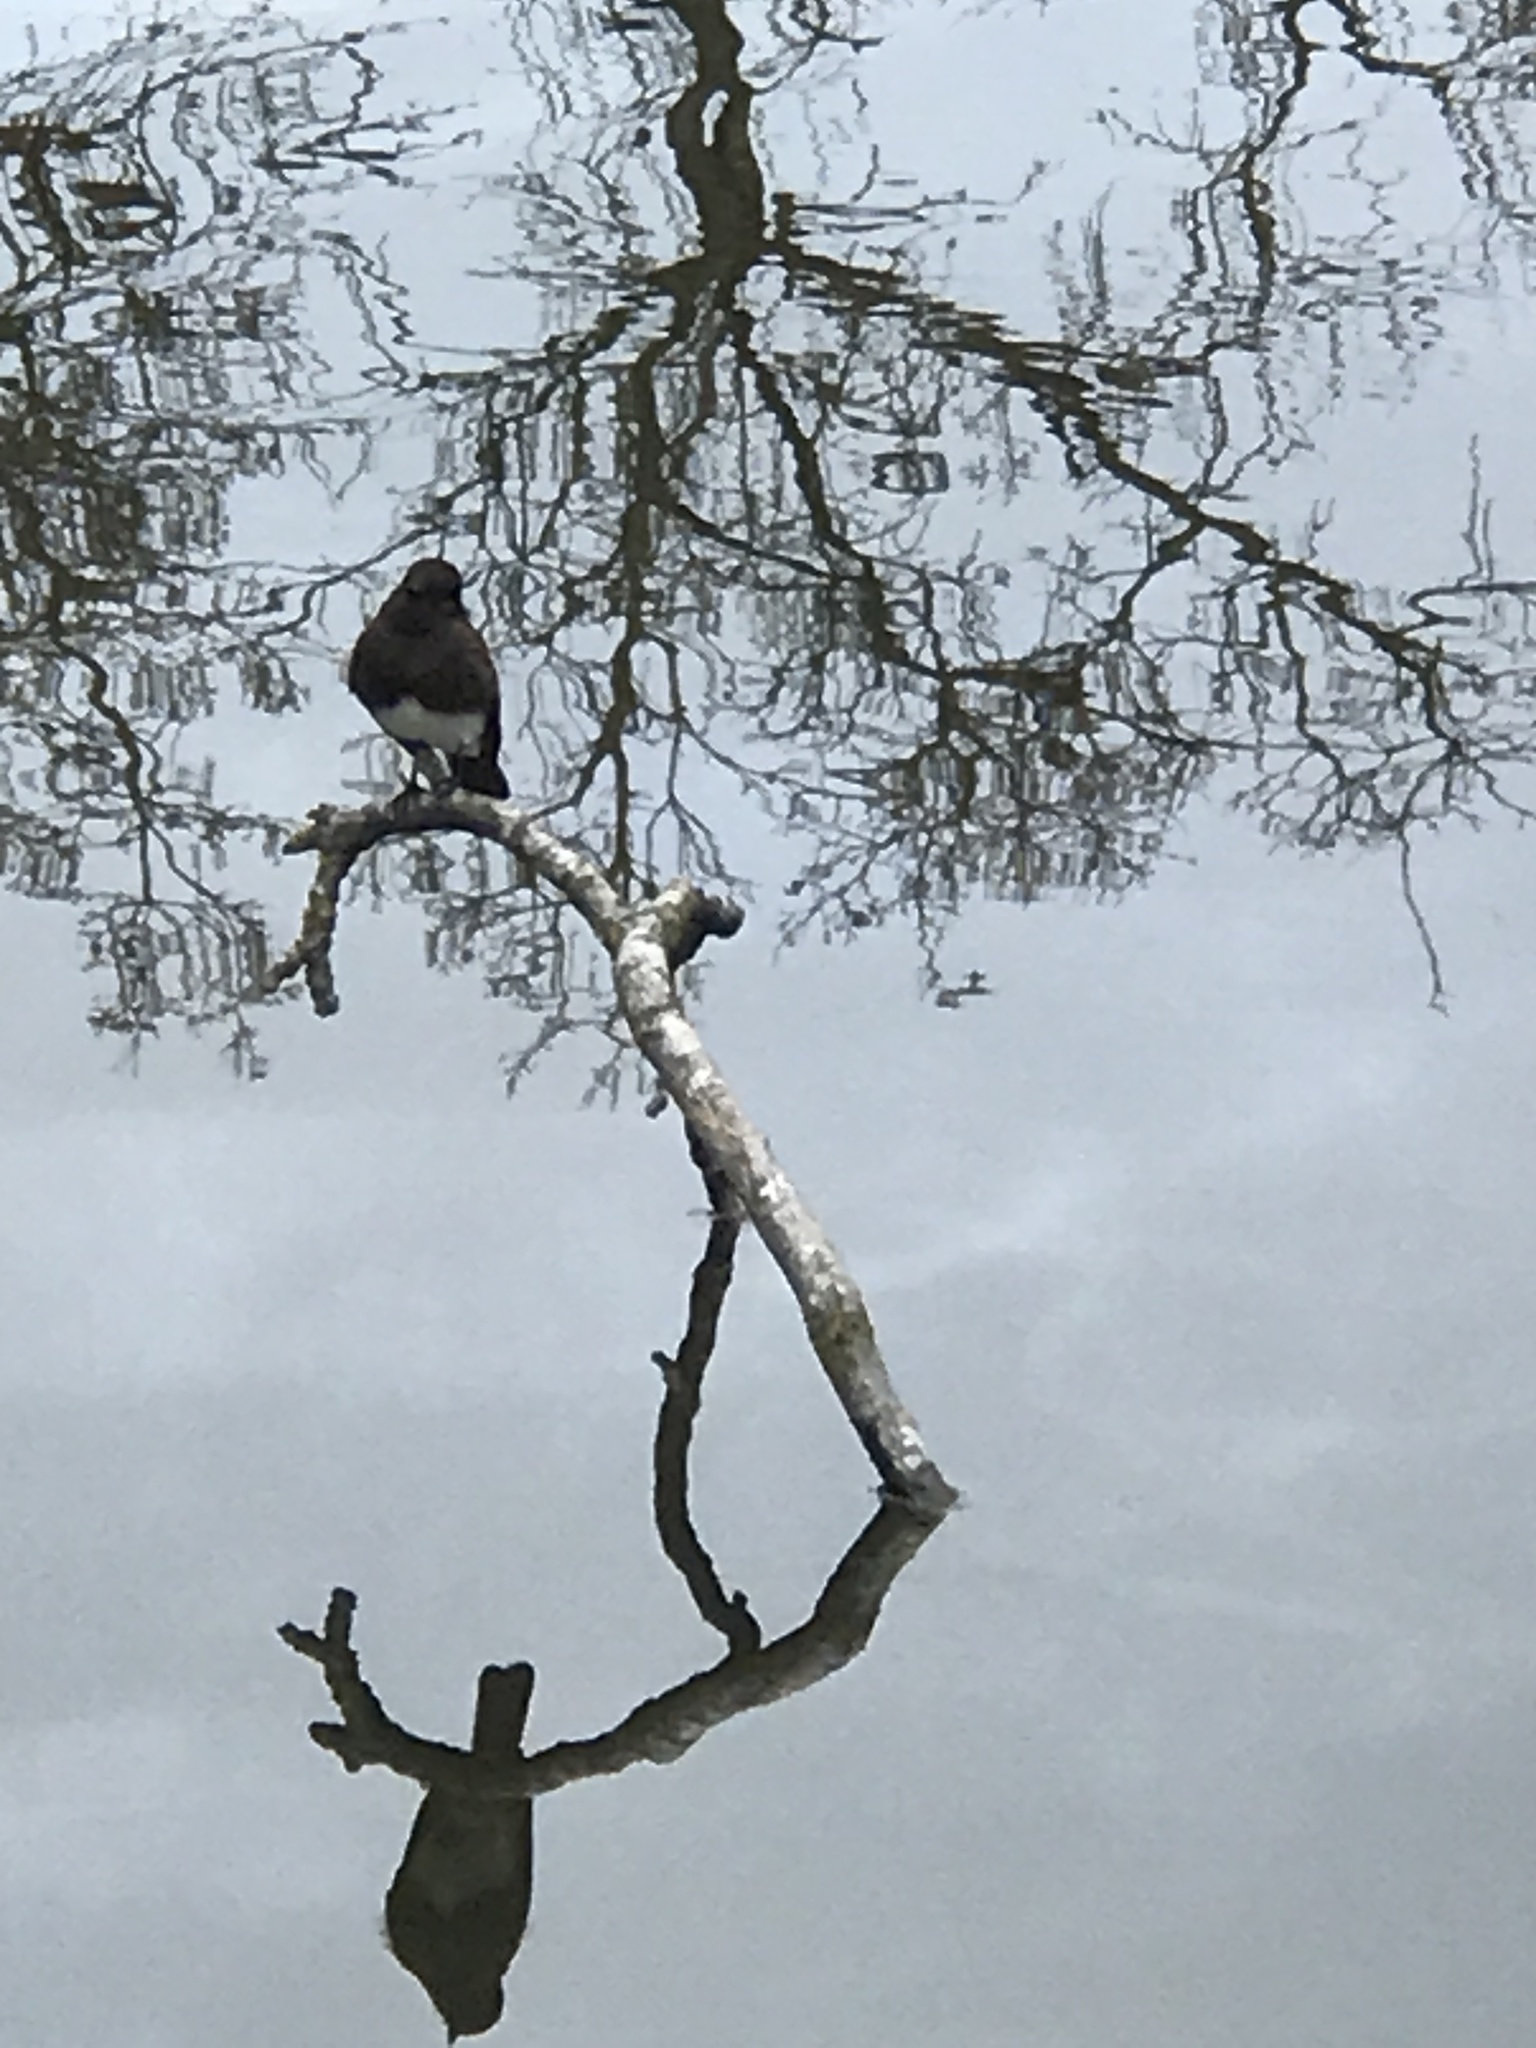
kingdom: Animalia
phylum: Chordata
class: Aves
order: Passeriformes
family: Tyrannidae
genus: Sayornis
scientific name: Sayornis nigricans
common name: Black phoebe
